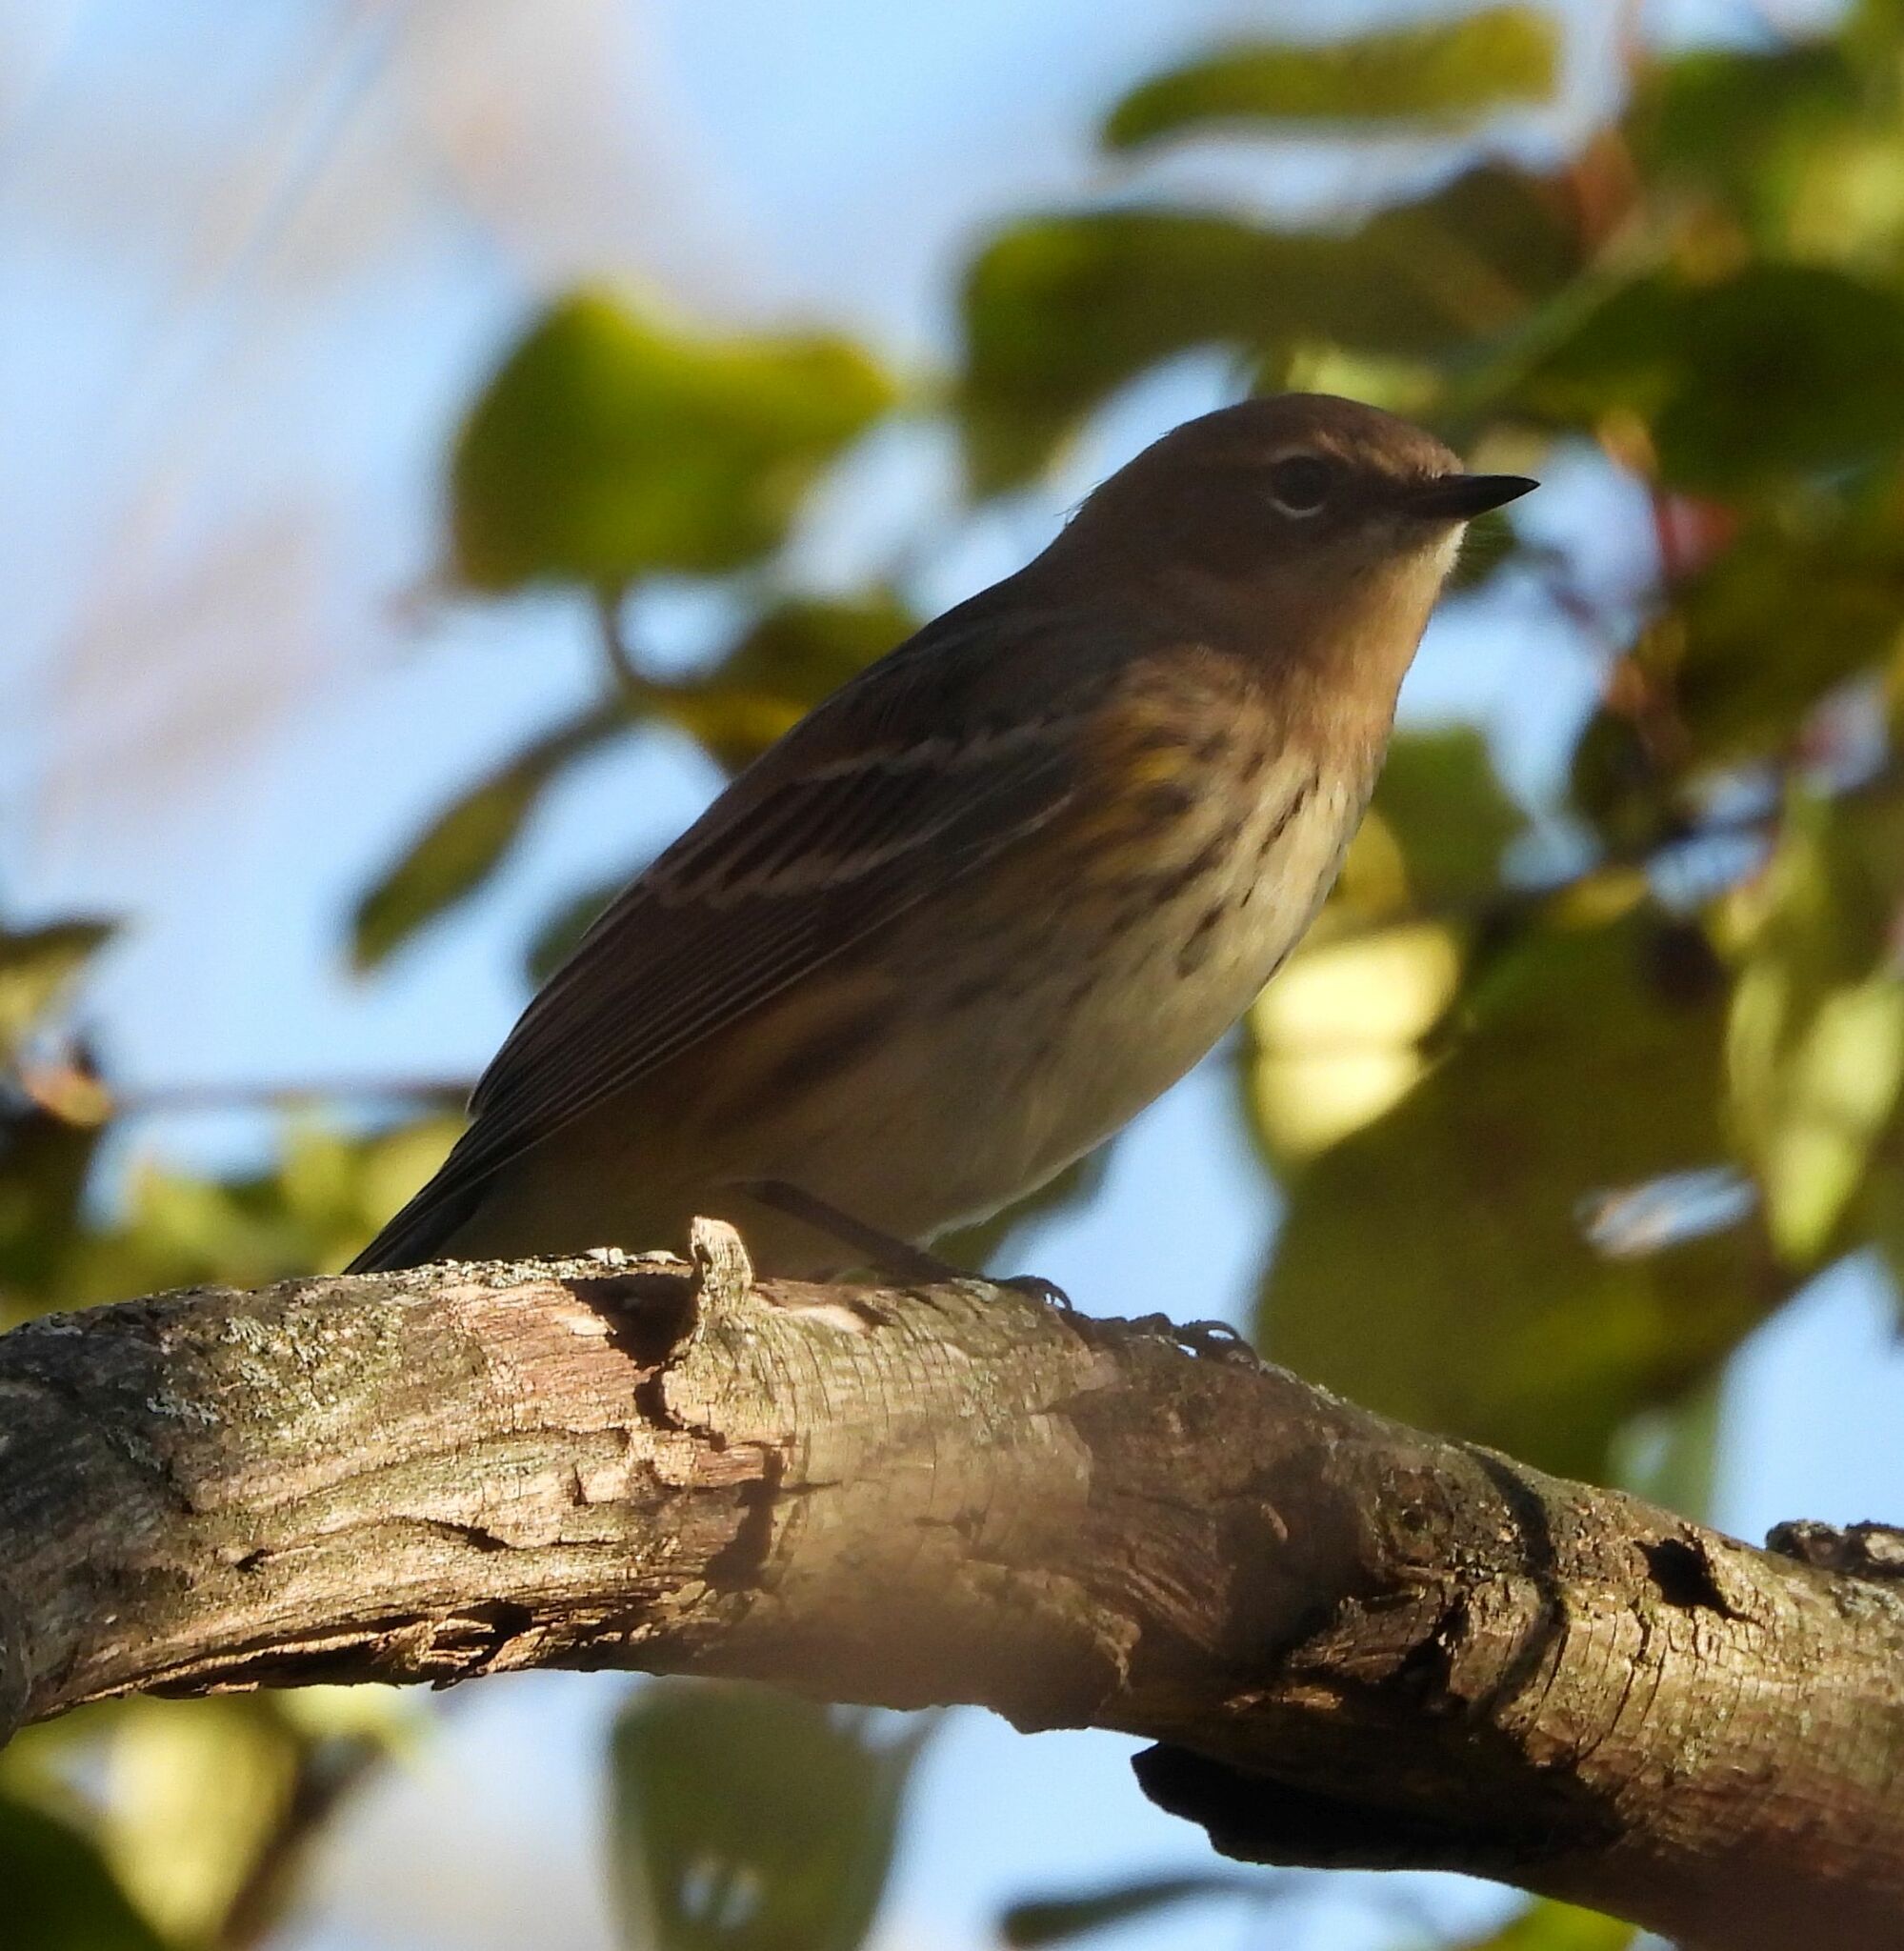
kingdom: Animalia
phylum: Chordata
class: Aves
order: Passeriformes
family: Parulidae
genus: Setophaga
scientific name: Setophaga coronata
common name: Myrtle warbler
